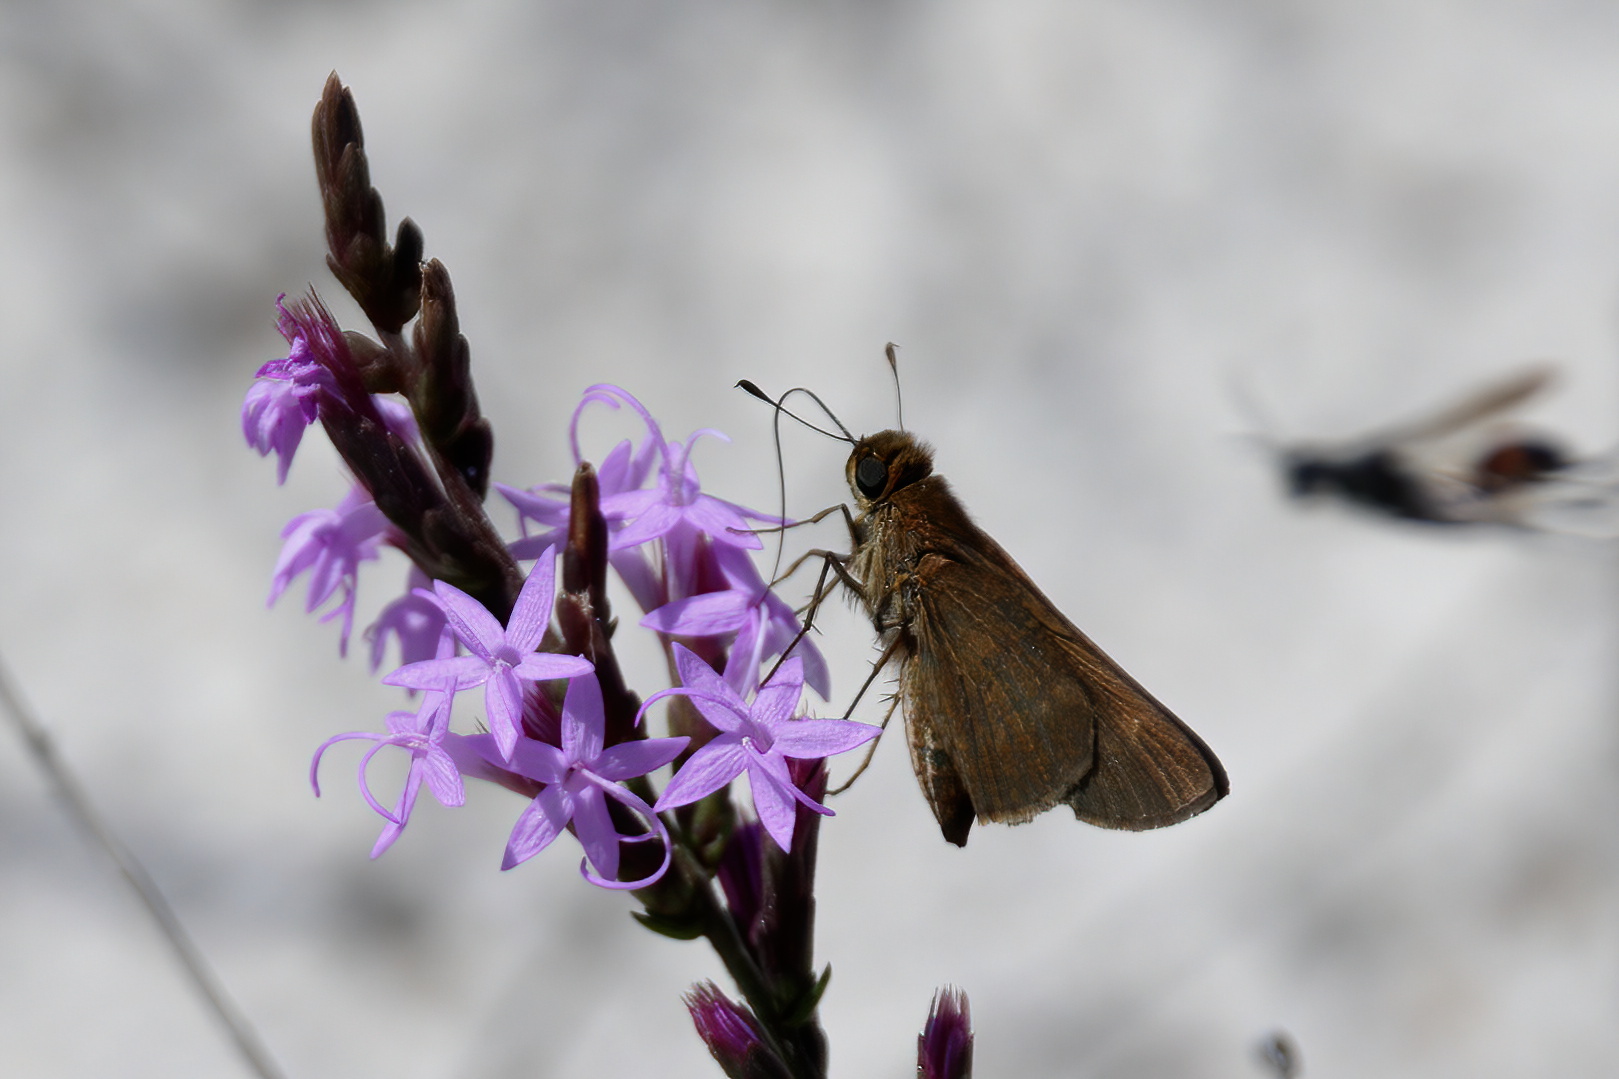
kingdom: Animalia
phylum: Arthropoda
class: Insecta
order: Lepidoptera
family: Hesperiidae
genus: Panoquina
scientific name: Panoquina ocola
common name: Ocola skipper
